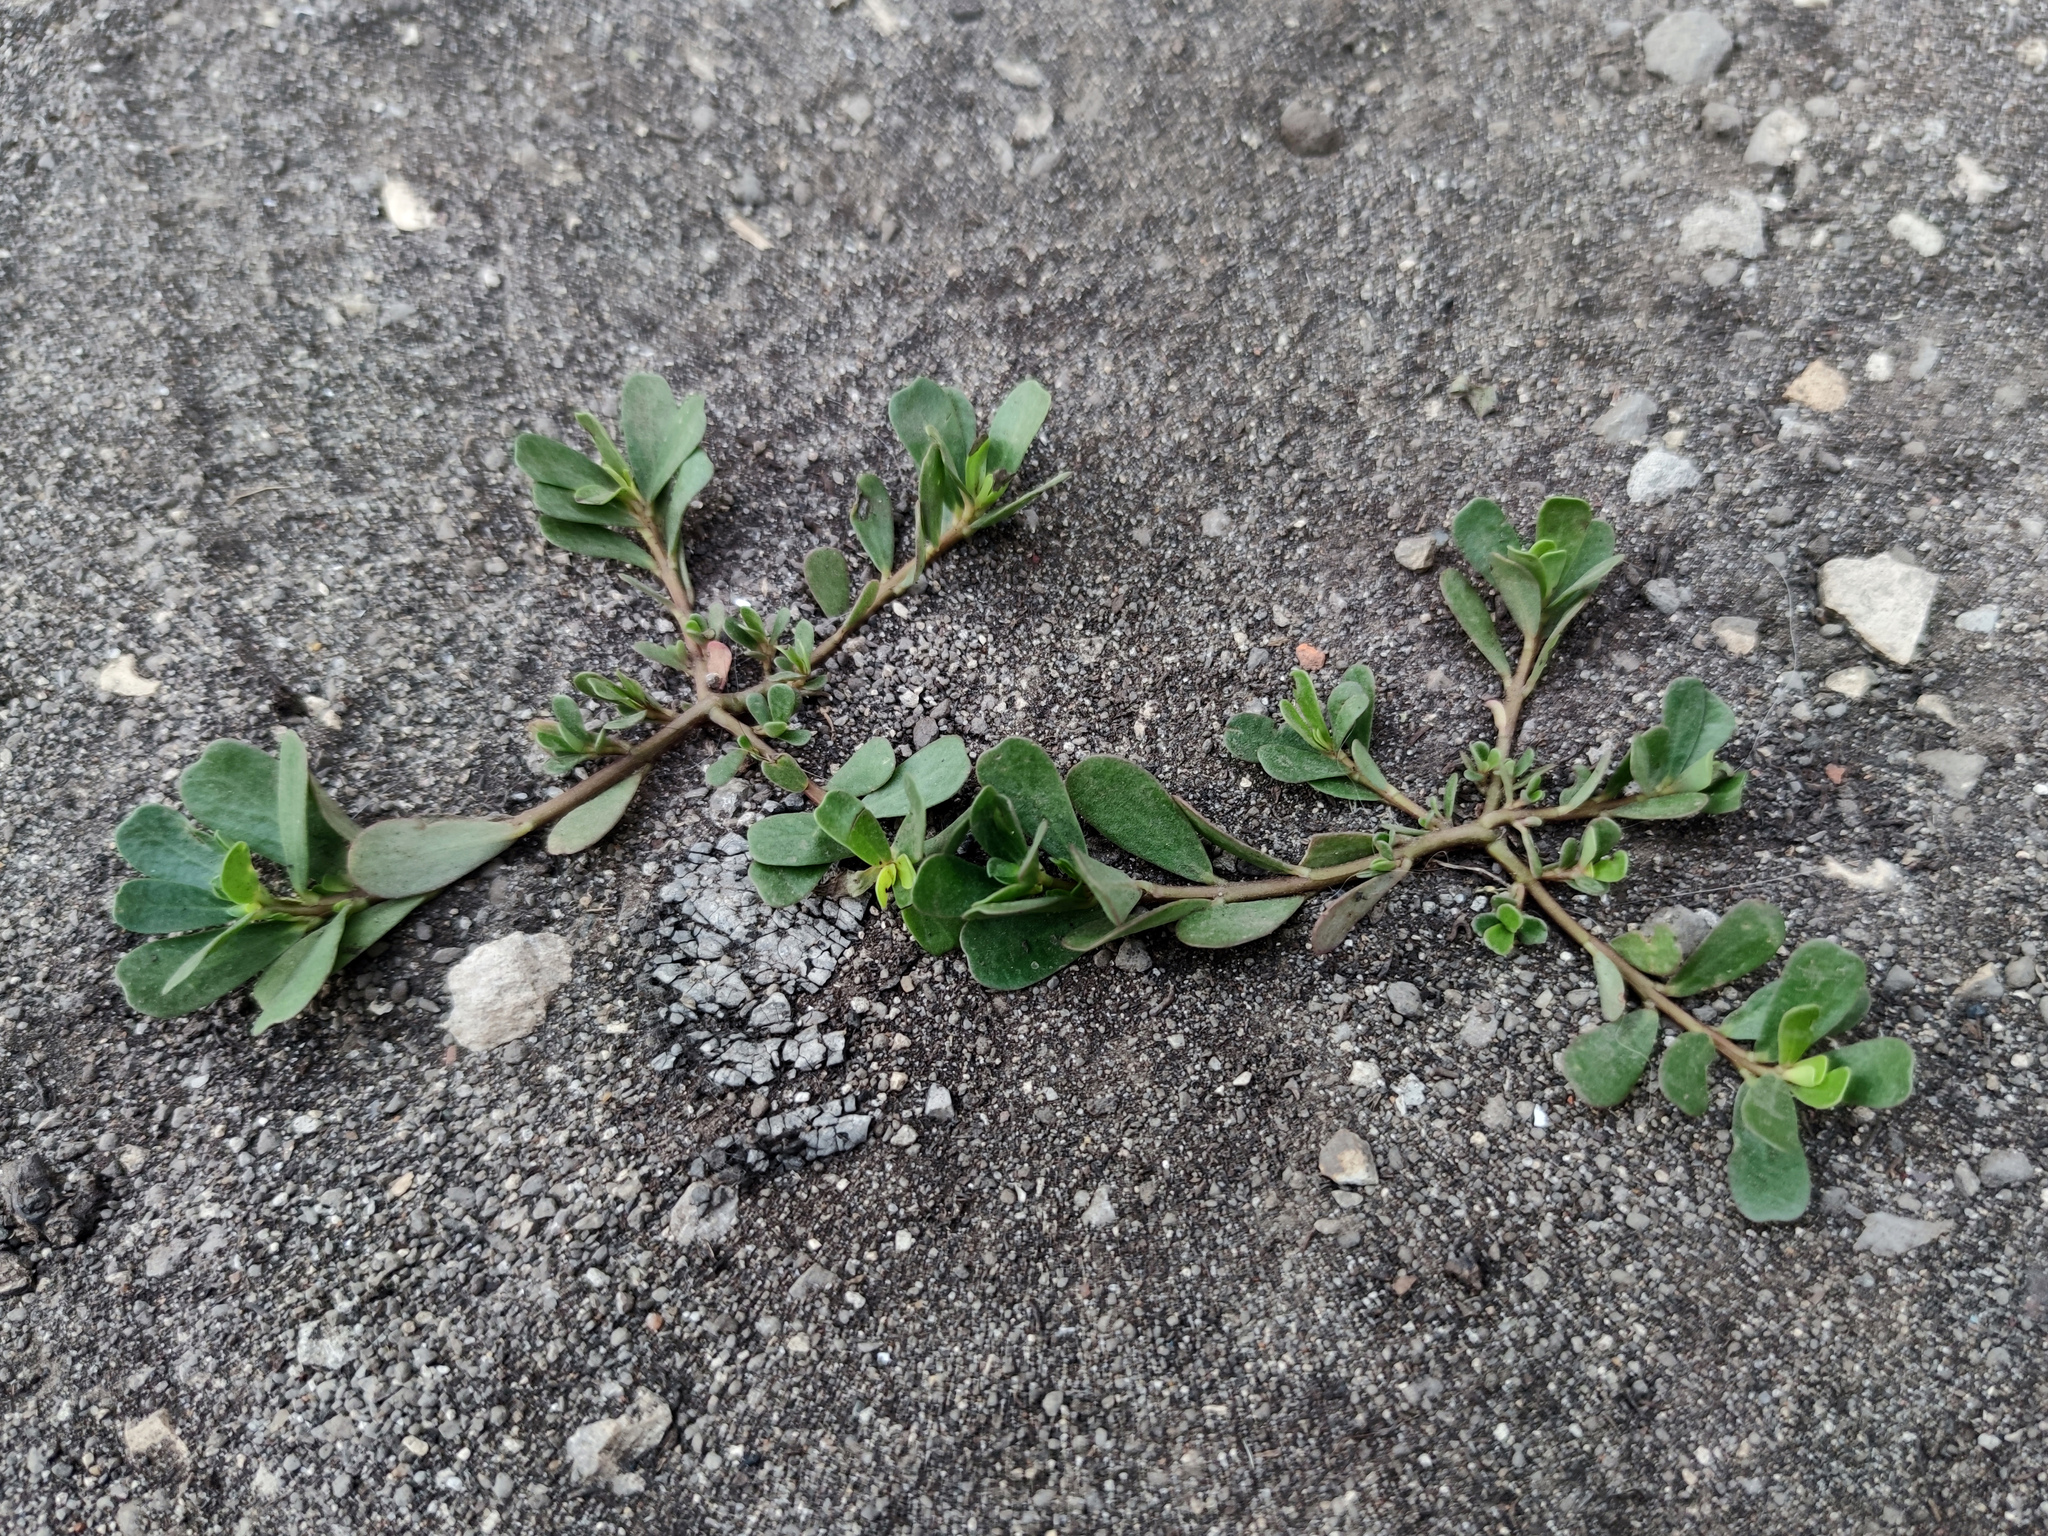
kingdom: Plantae
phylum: Tracheophyta
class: Magnoliopsida
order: Caryophyllales
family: Portulacaceae
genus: Portulaca
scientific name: Portulaca oleracea
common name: Common purslane
